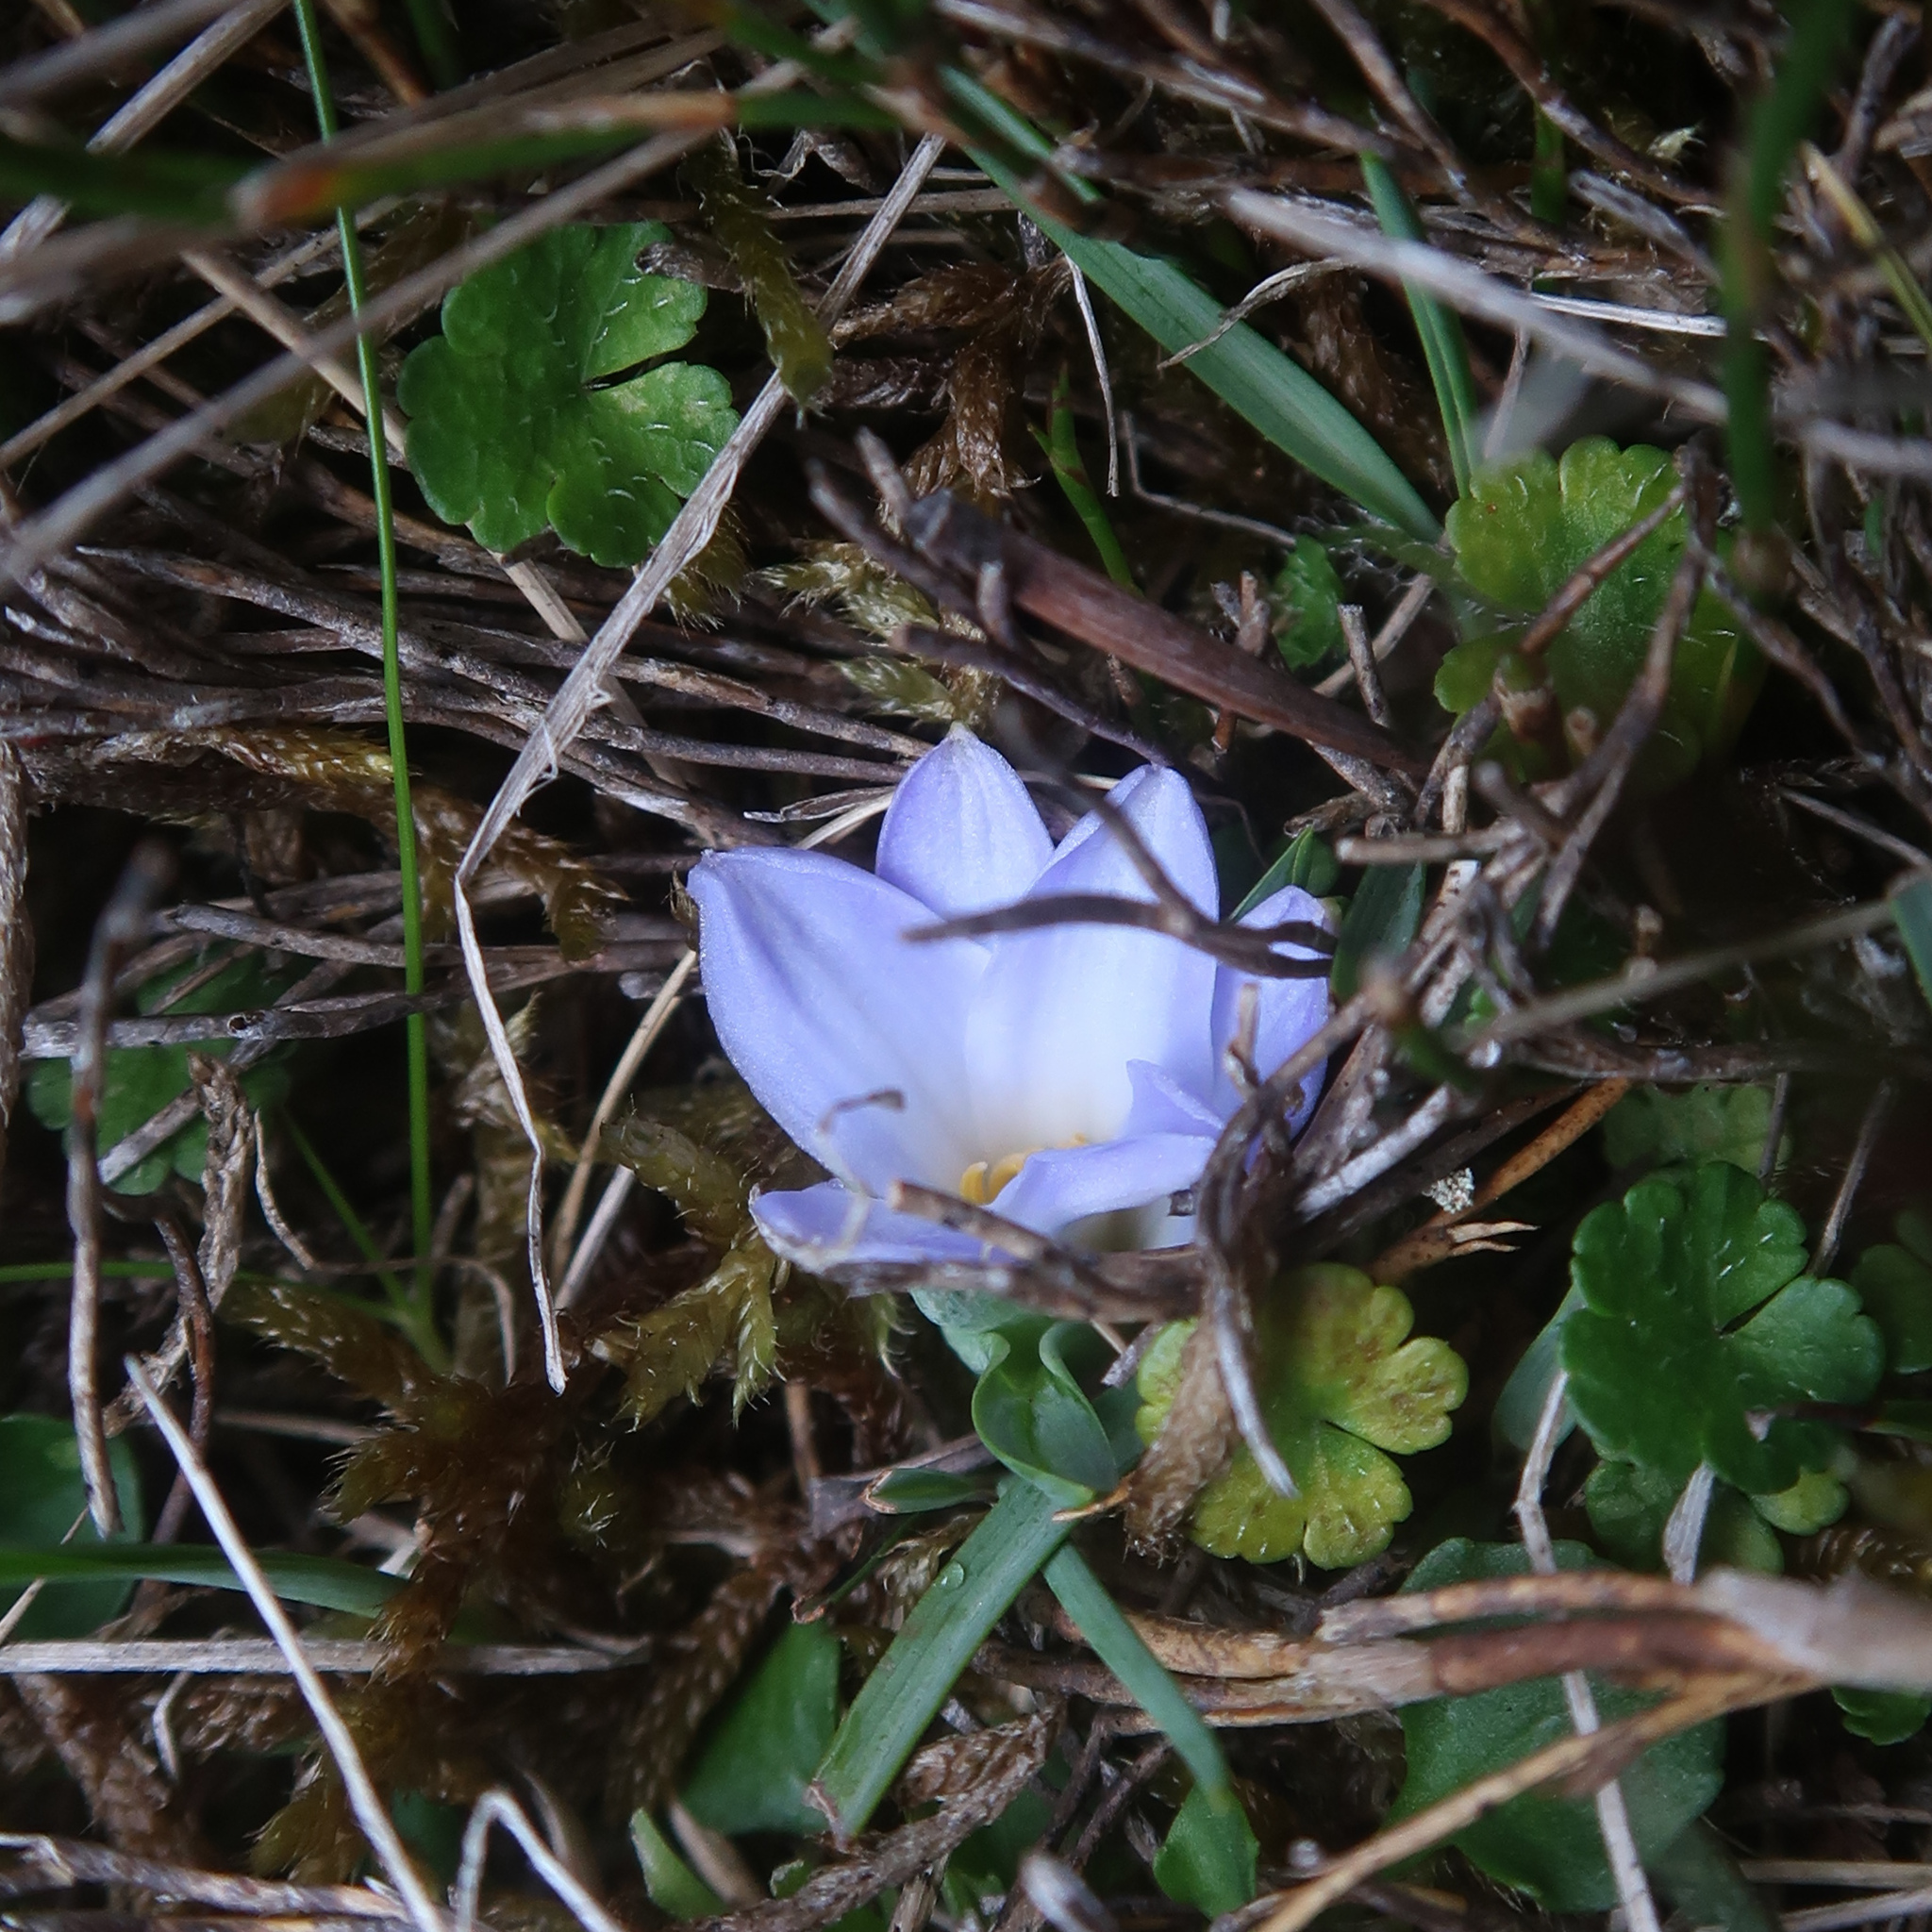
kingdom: Plantae
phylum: Tracheophyta
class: Liliopsida
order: Asparagales
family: Asphodelaceae
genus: Herpolirion
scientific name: Herpolirion novae-zelandiae
